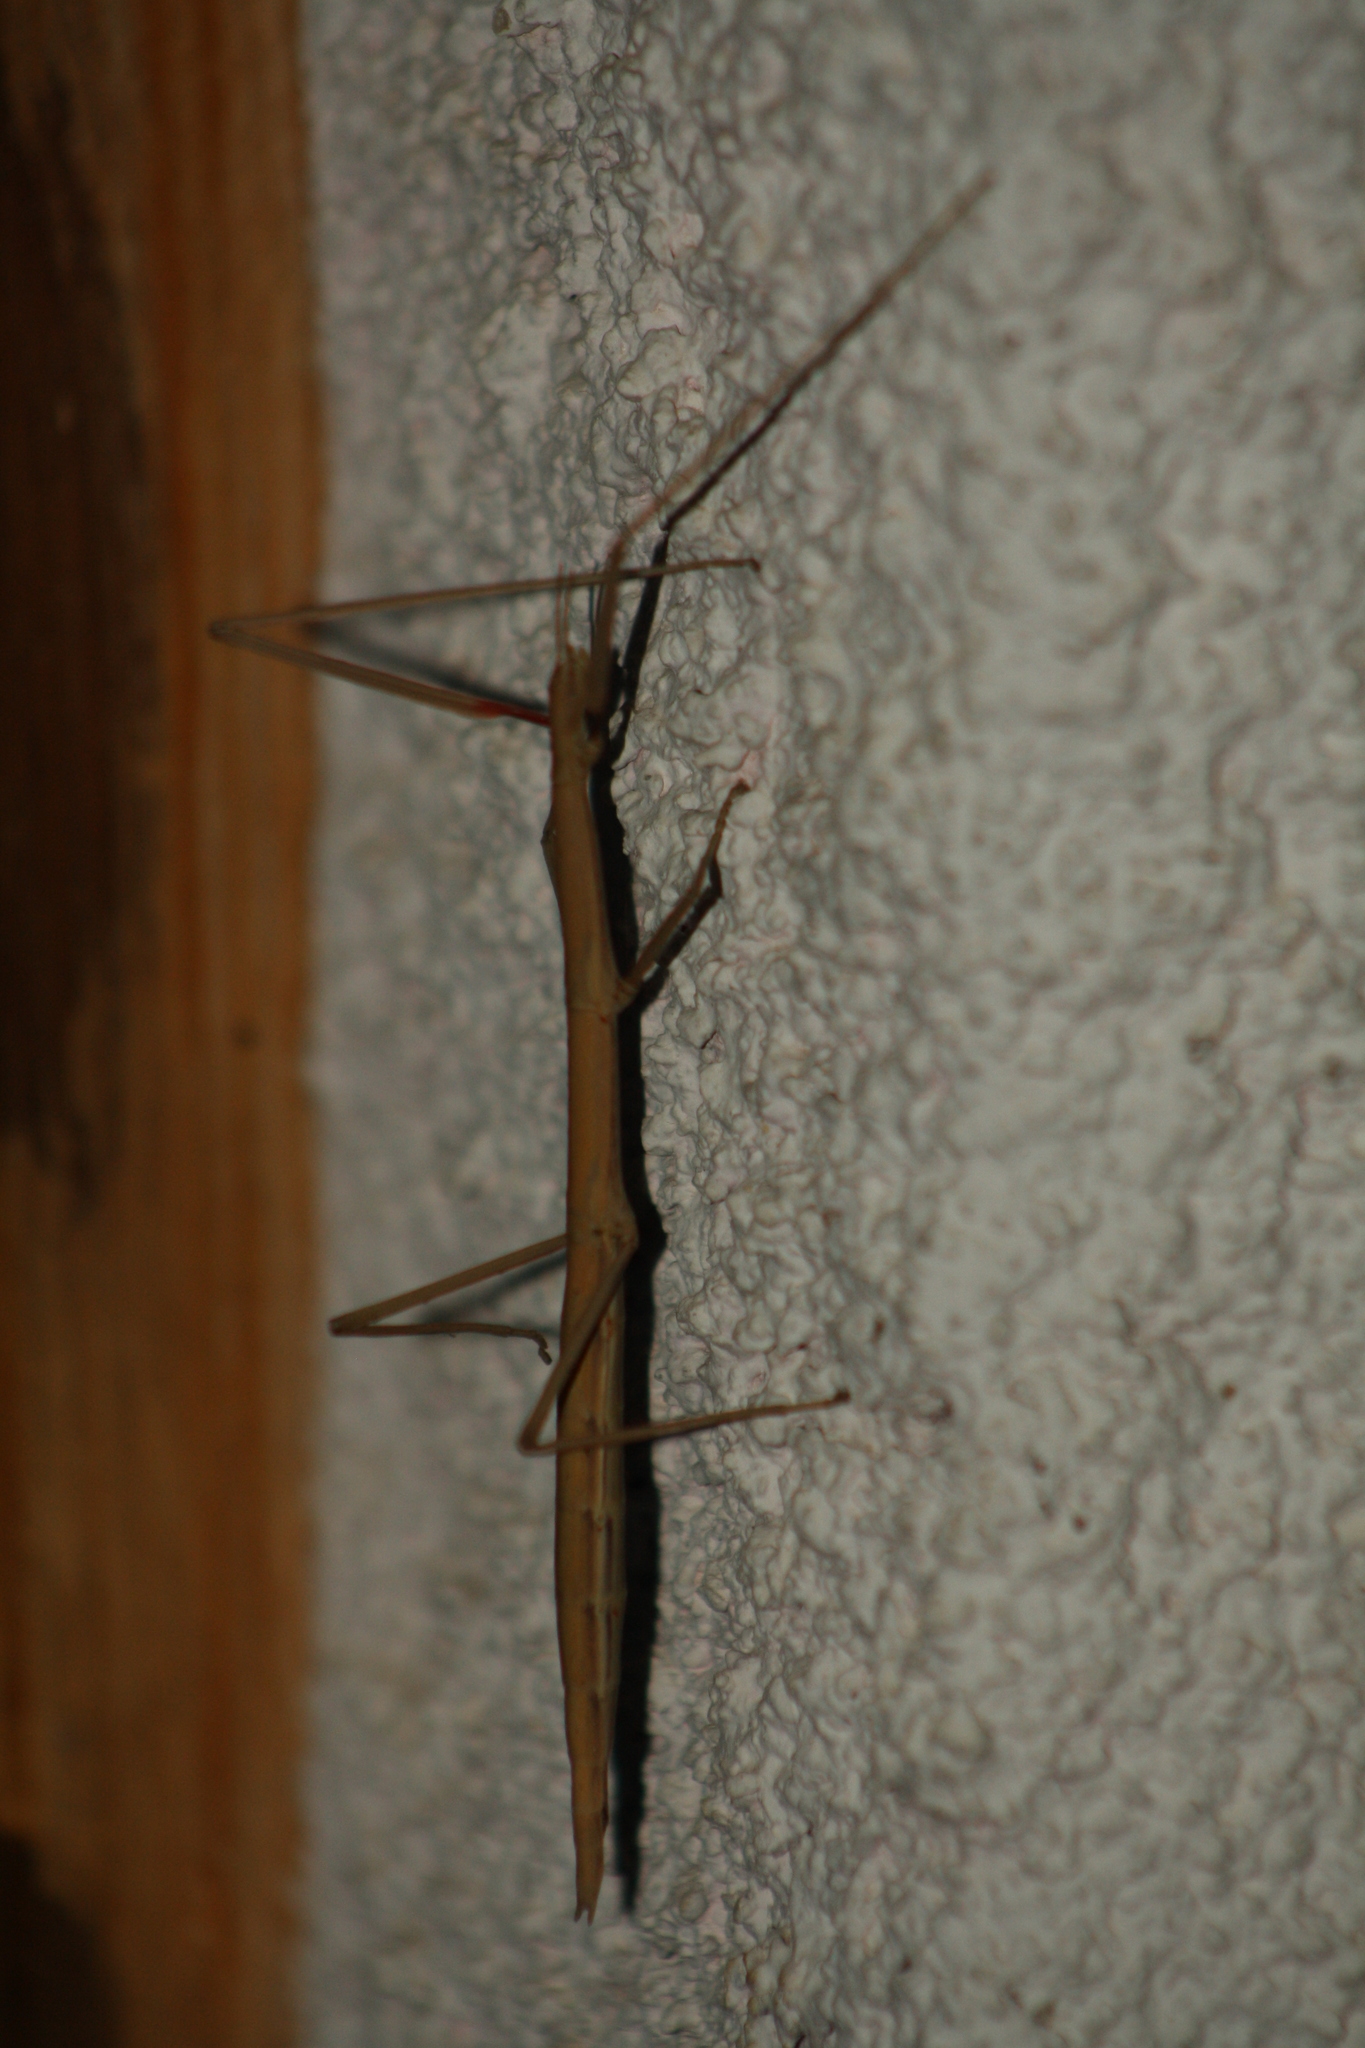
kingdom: Animalia
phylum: Arthropoda
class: Insecta
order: Phasmida
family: Bacillidae
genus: Bacillus
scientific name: Bacillus rossius
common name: Corsican stick-insect
